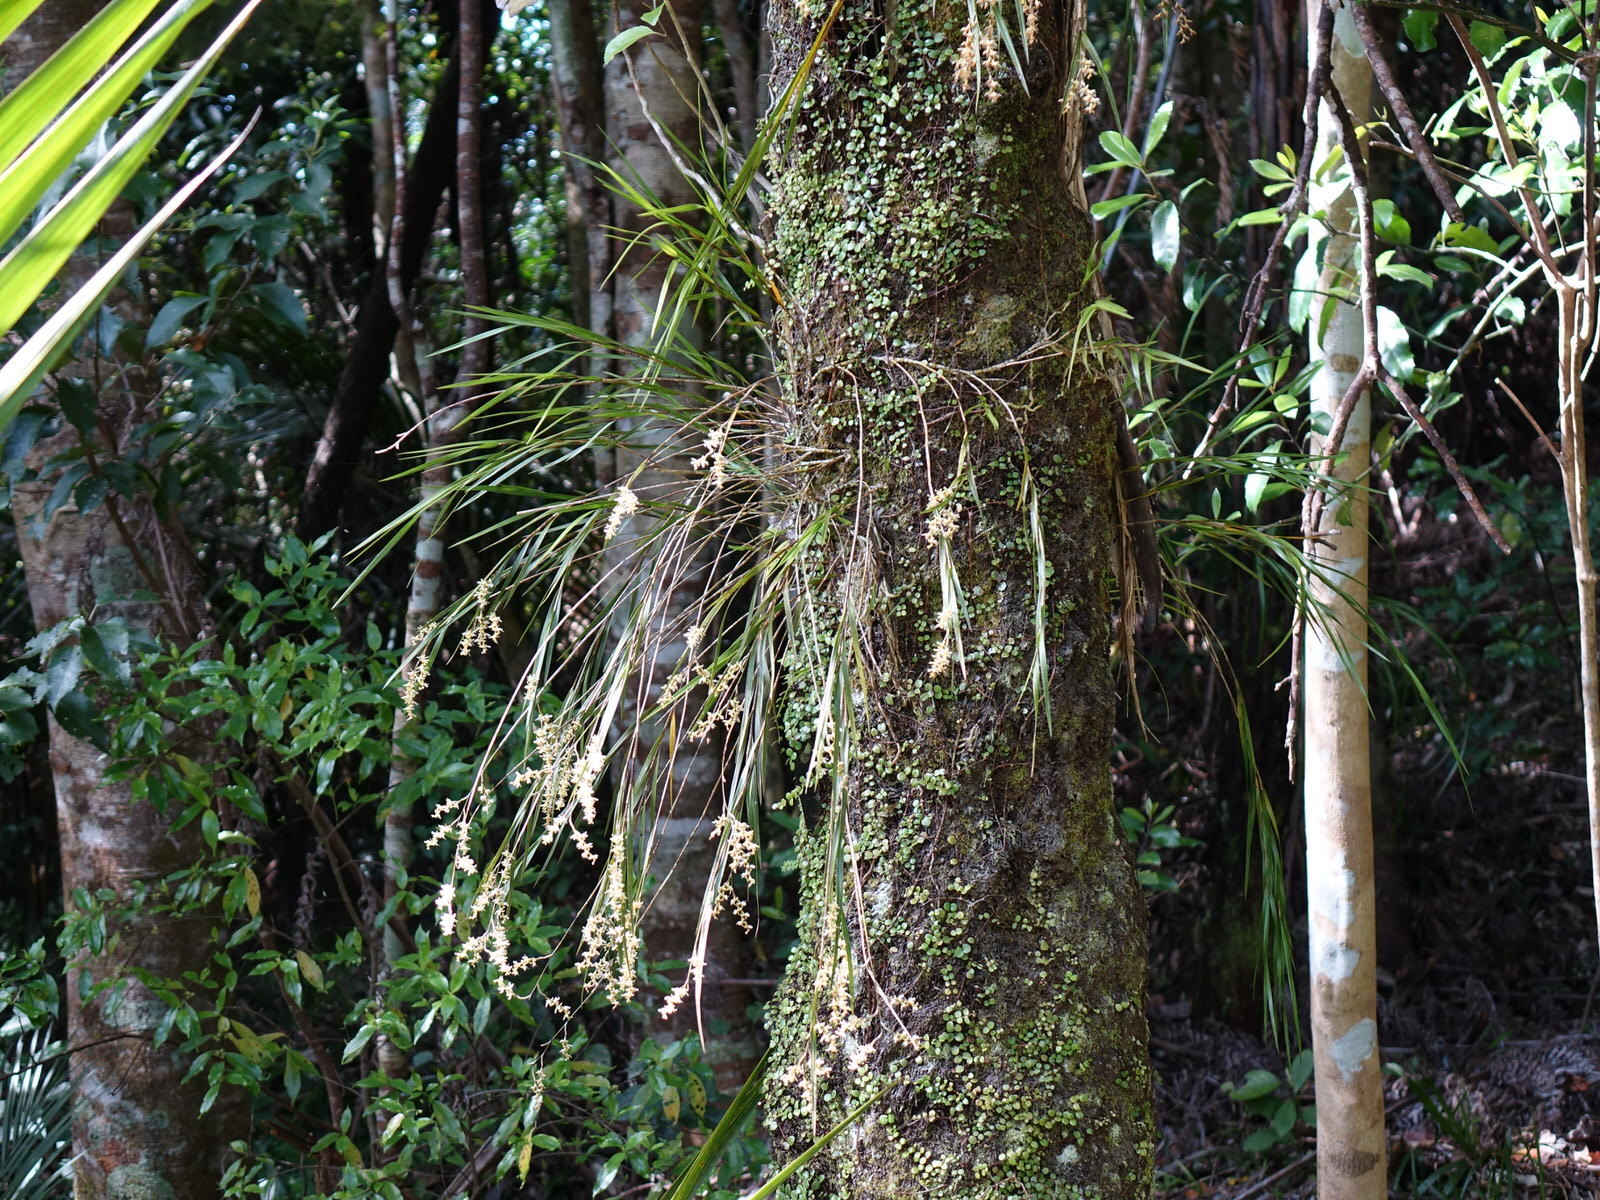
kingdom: Plantae
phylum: Tracheophyta
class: Liliopsida
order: Asparagales
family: Orchidaceae
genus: Earina
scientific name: Earina mucronata
